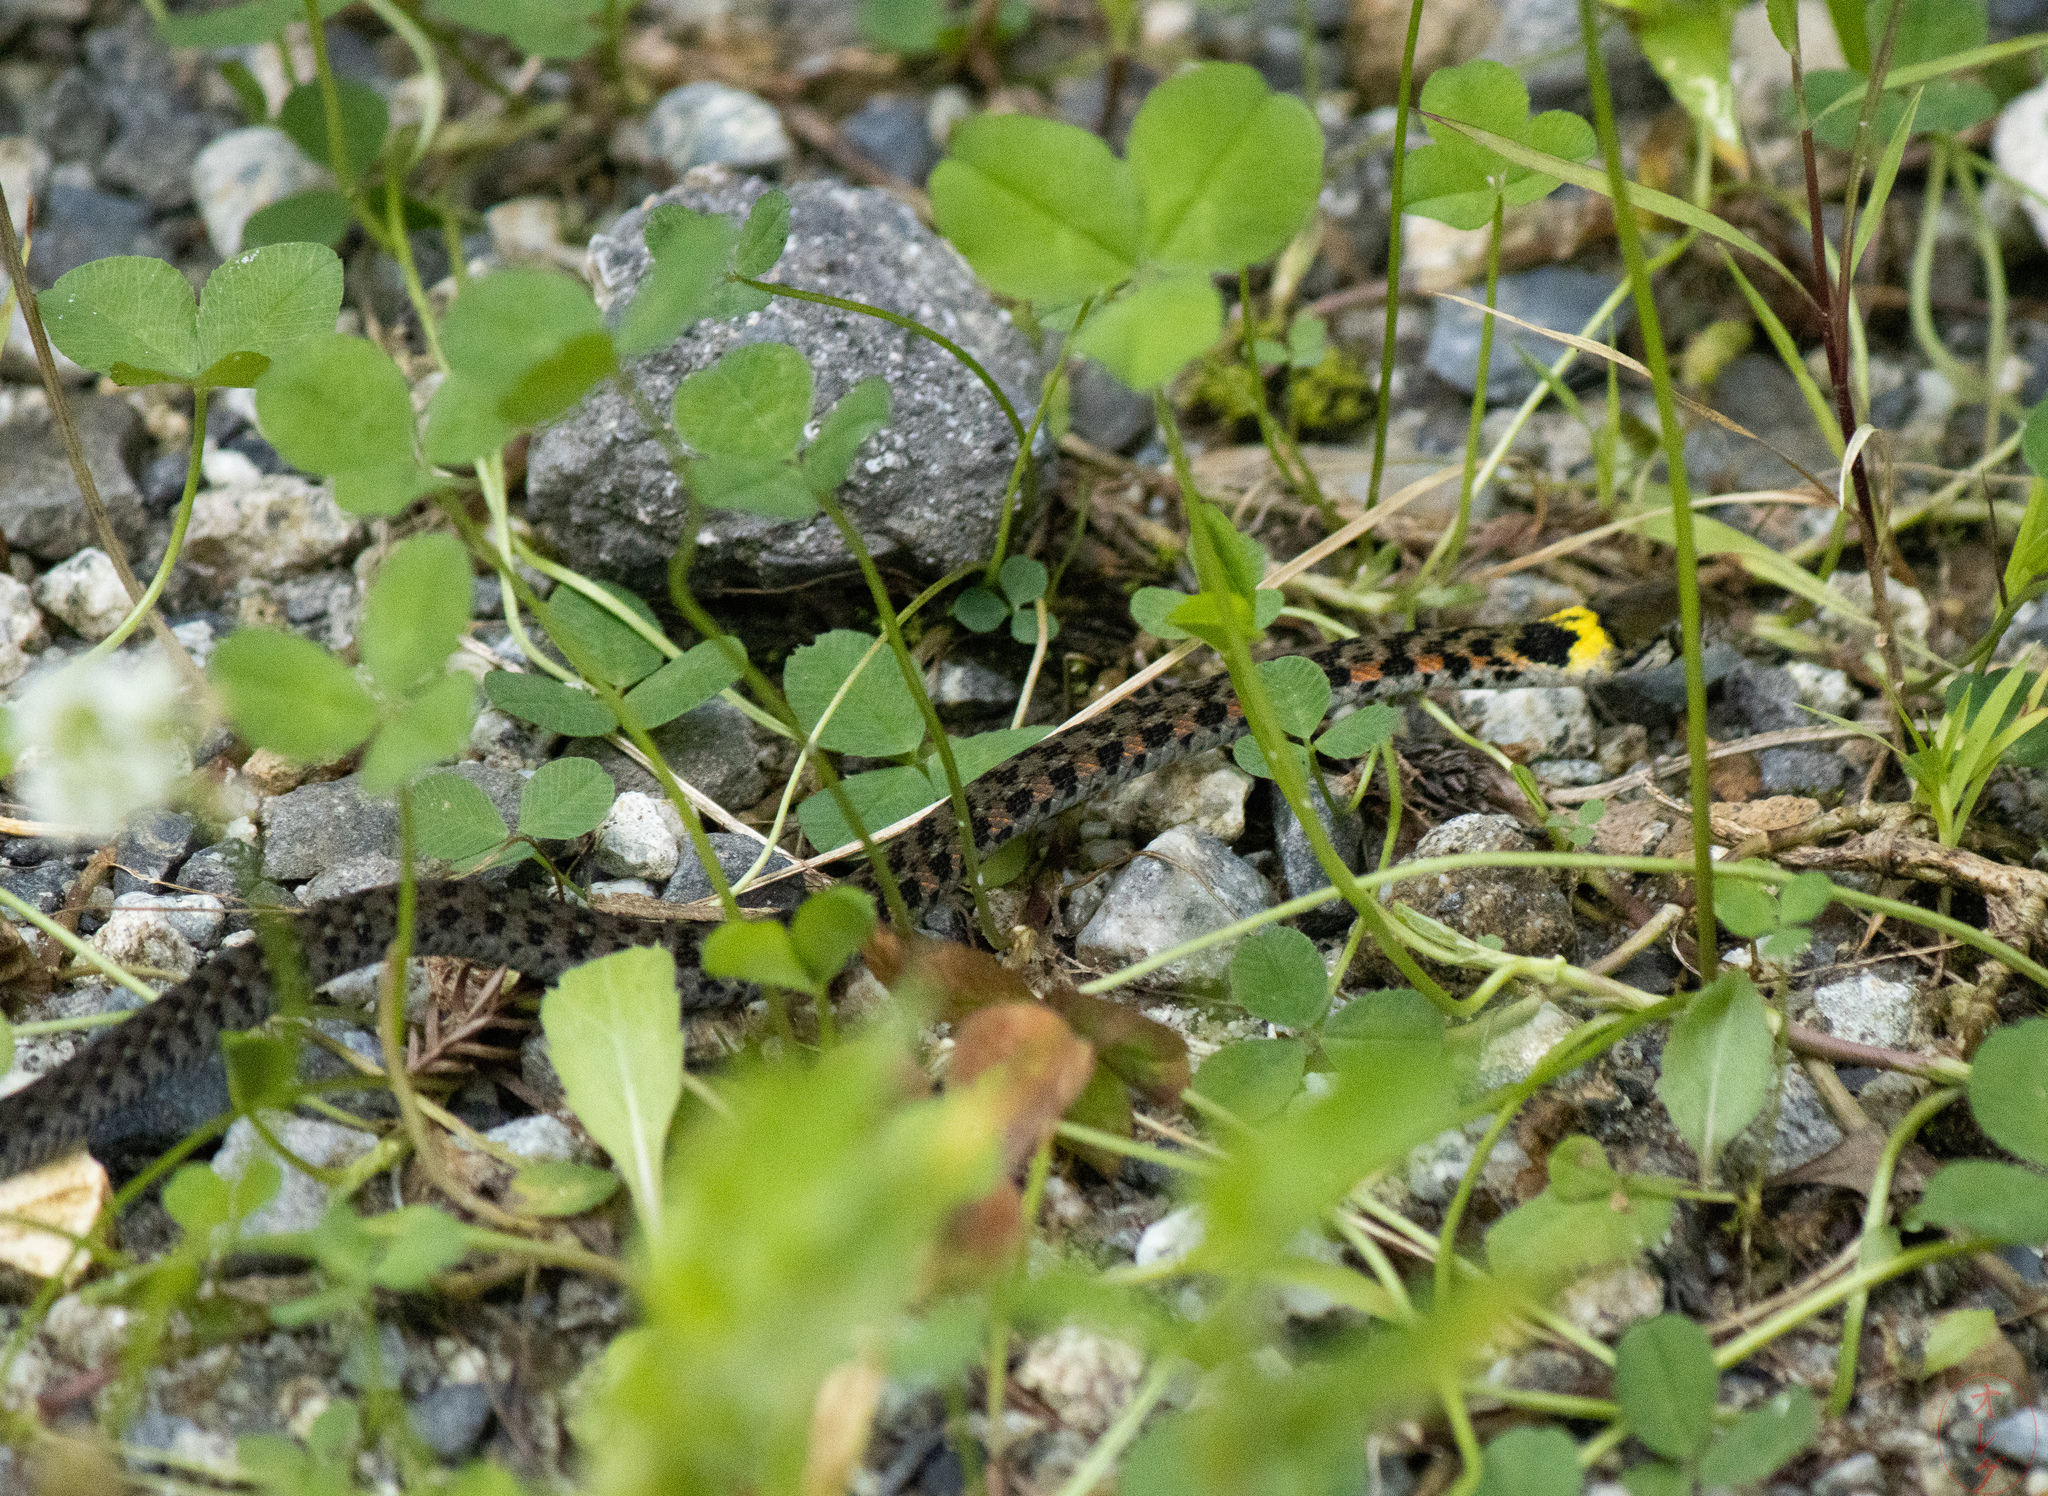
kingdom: Animalia
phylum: Chordata
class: Squamata
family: Colubridae
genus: Rhabdophis
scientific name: Rhabdophis tigrinus
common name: Tiger keelback
